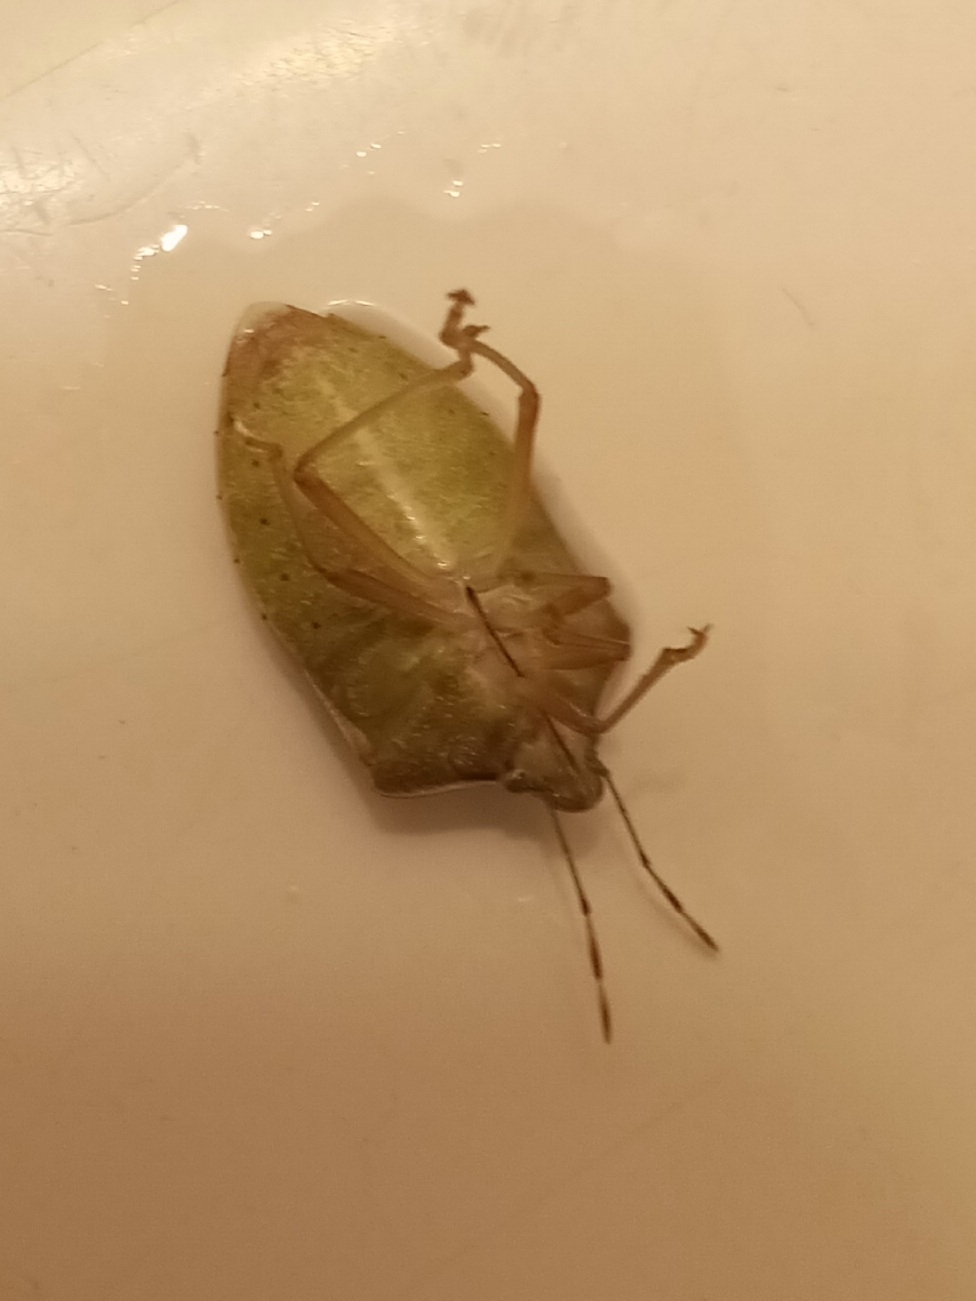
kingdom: Animalia
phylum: Arthropoda
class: Insecta
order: Hemiptera
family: Pentatomidae
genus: Nezara
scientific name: Nezara viridula
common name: Southern green stink bug
